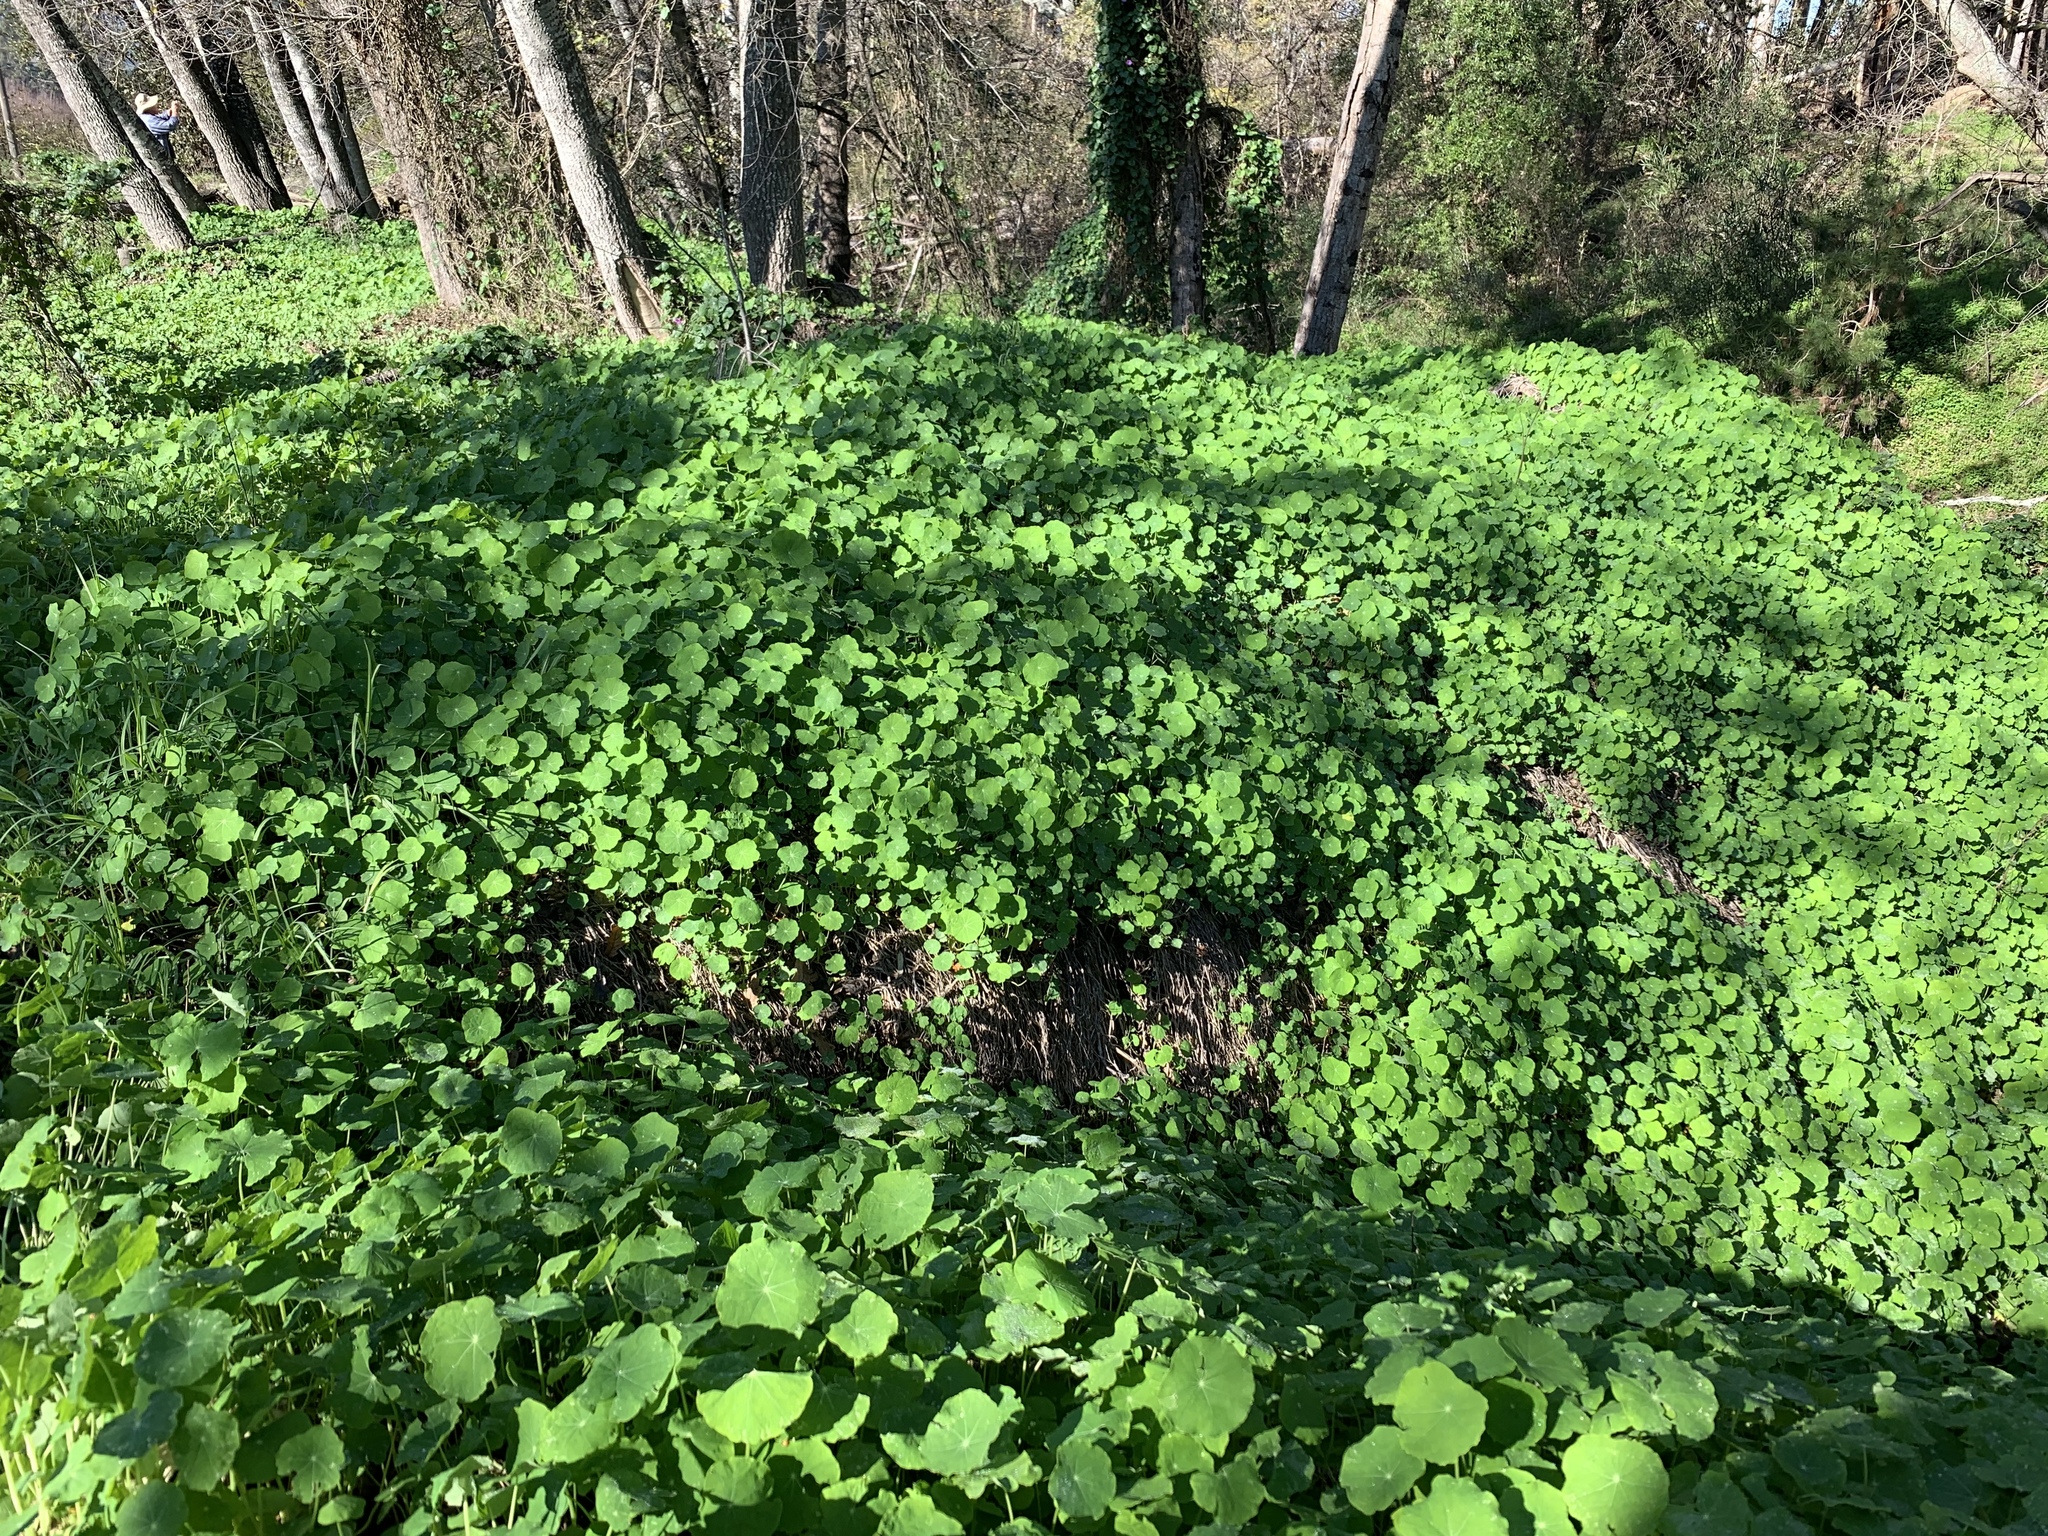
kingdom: Plantae
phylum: Tracheophyta
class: Magnoliopsida
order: Brassicales
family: Tropaeolaceae
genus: Tropaeolum
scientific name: Tropaeolum majus
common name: Nasturtium
